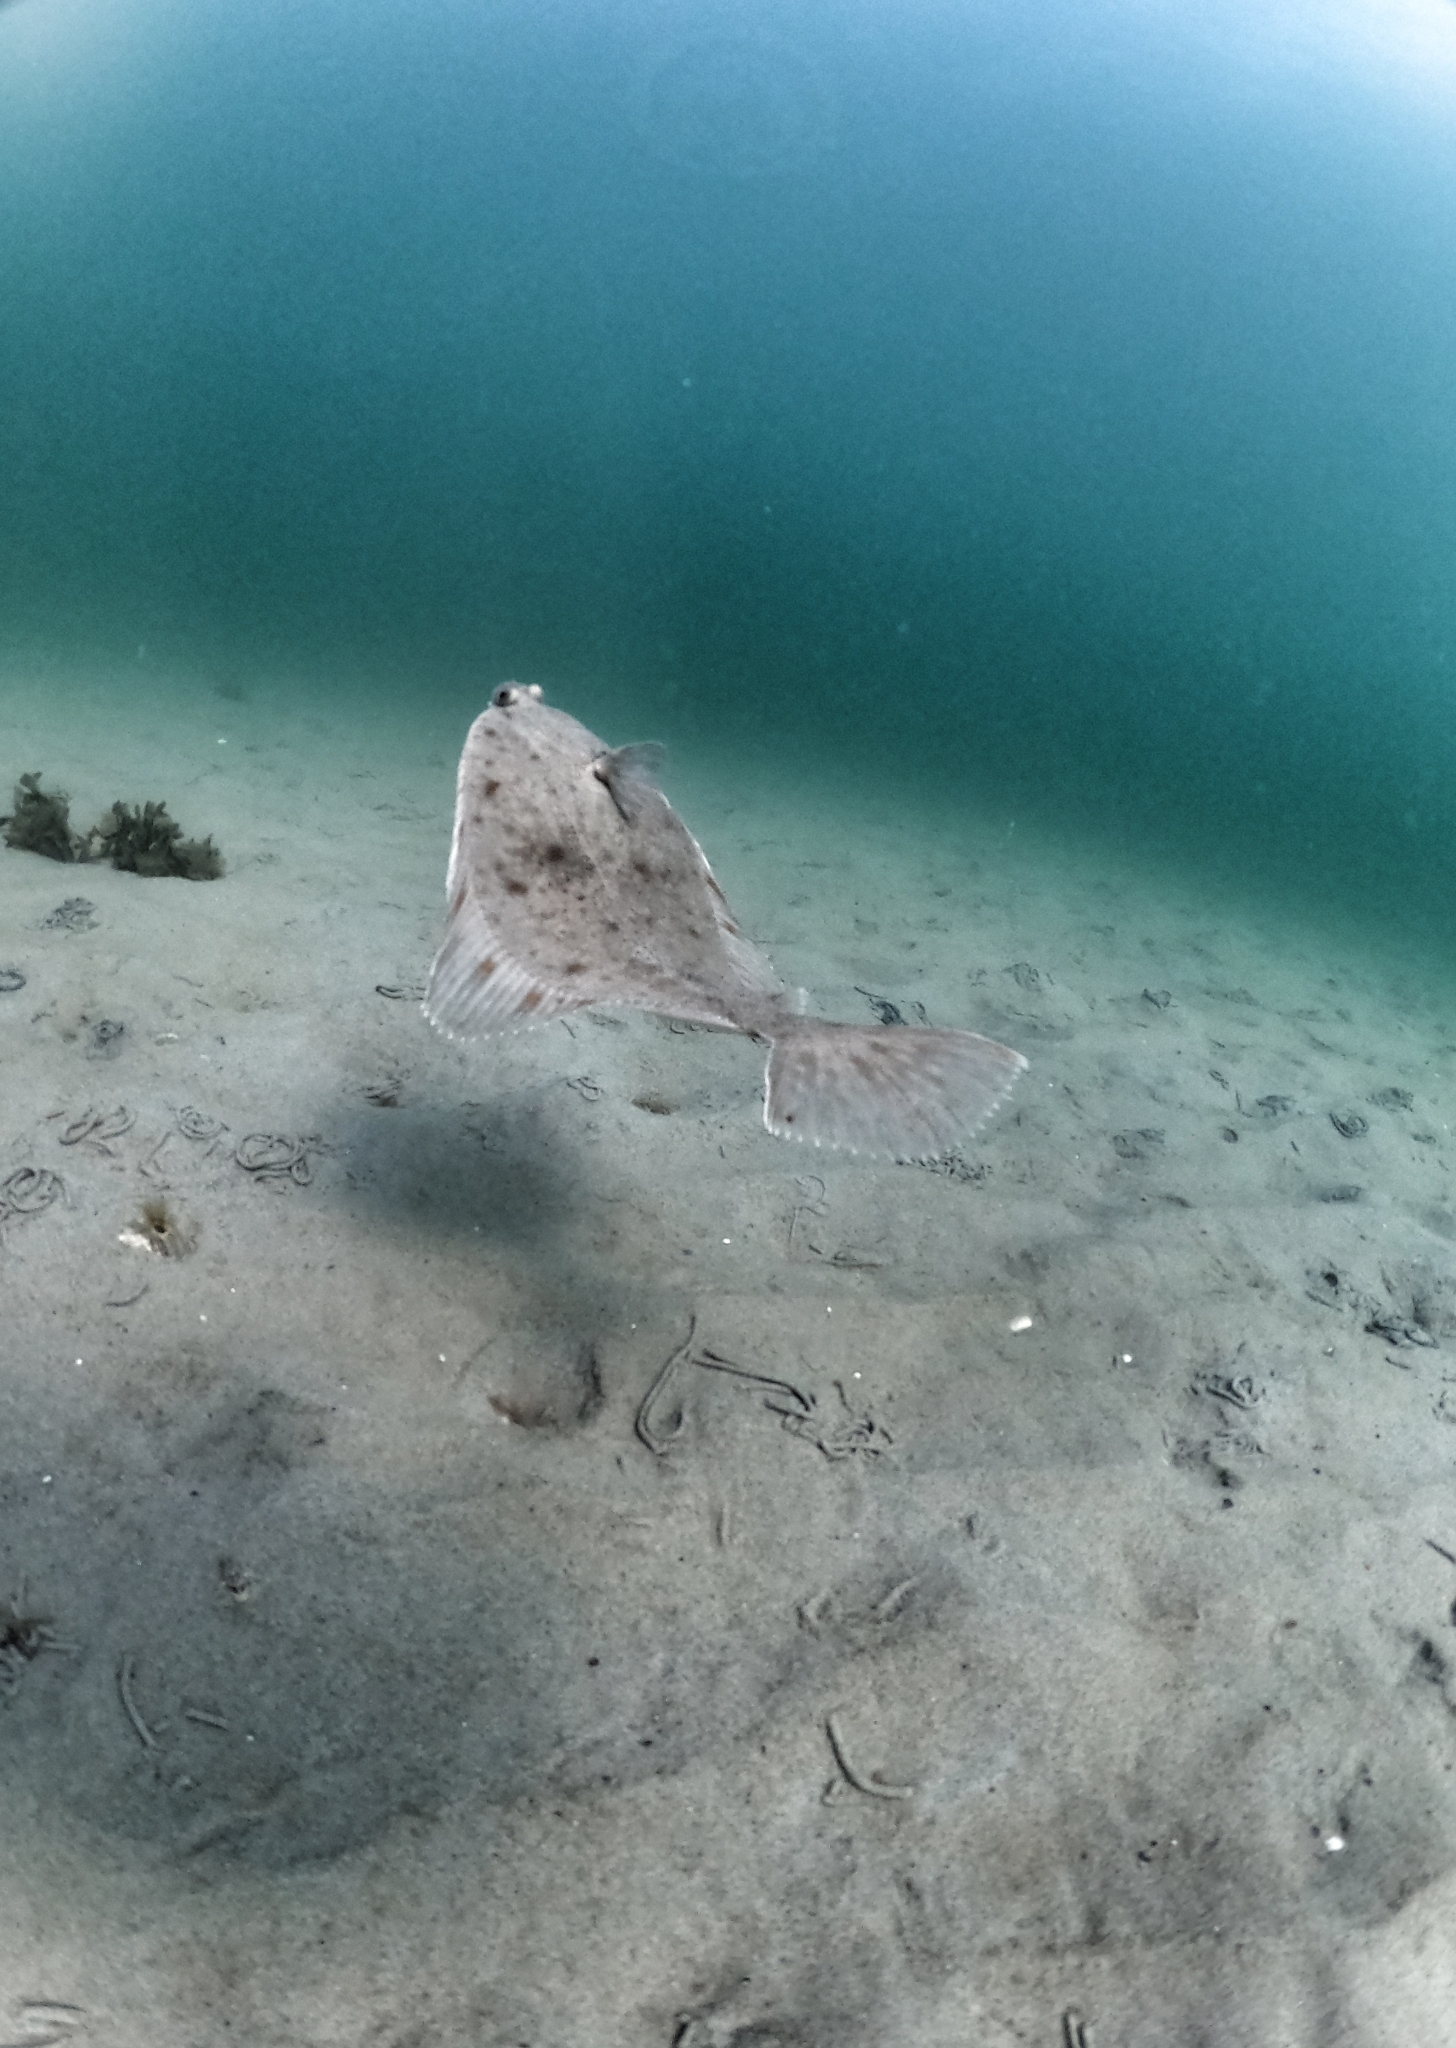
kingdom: Animalia
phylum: Chordata
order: Pleuronectiformes
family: Pleuronectidae
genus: Platichthys
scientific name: Platichthys flesus
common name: European flounder
